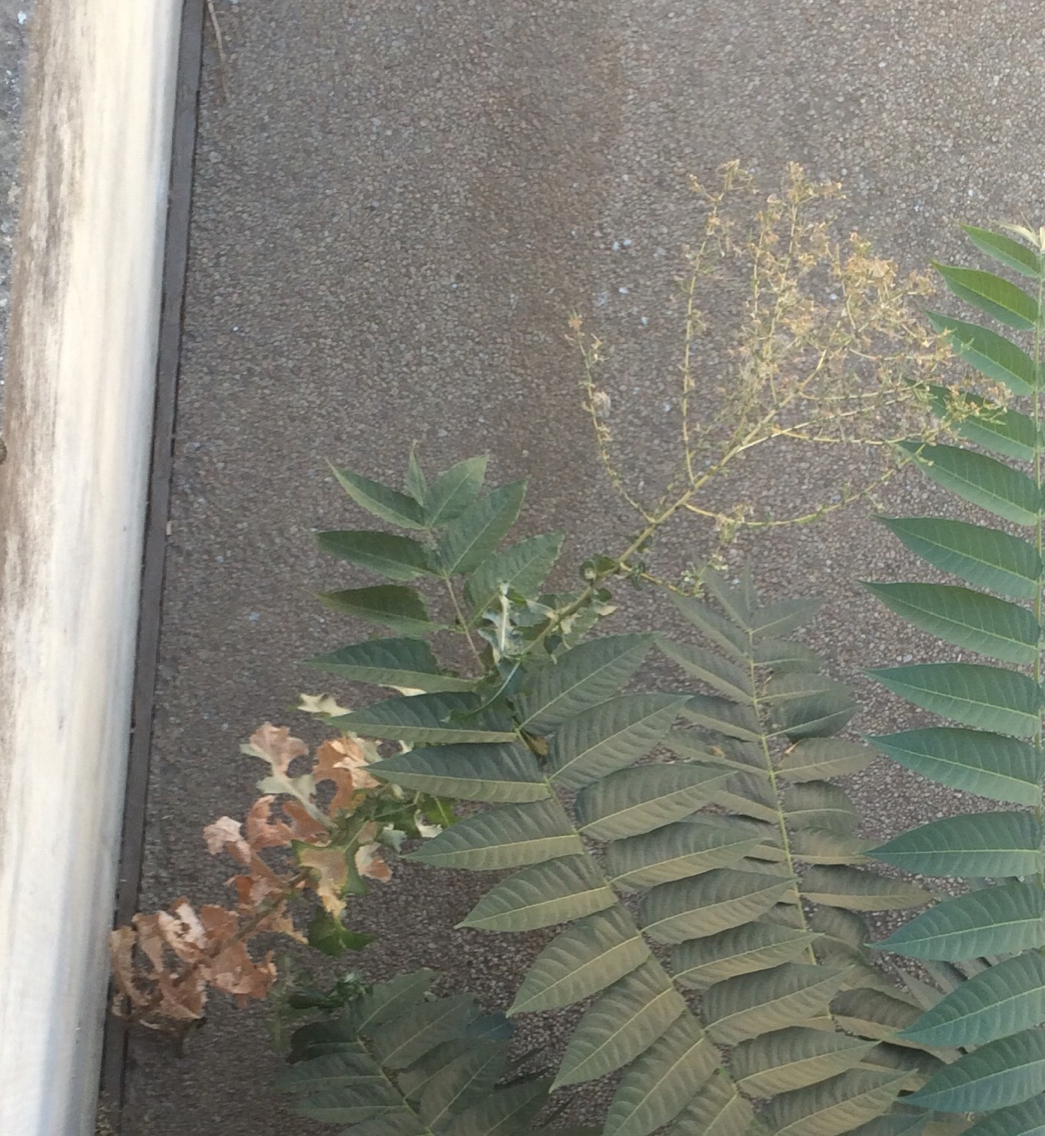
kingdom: Plantae
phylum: Tracheophyta
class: Magnoliopsida
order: Asterales
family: Asteraceae
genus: Lactuca
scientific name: Lactuca serriola
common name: Prickly lettuce
